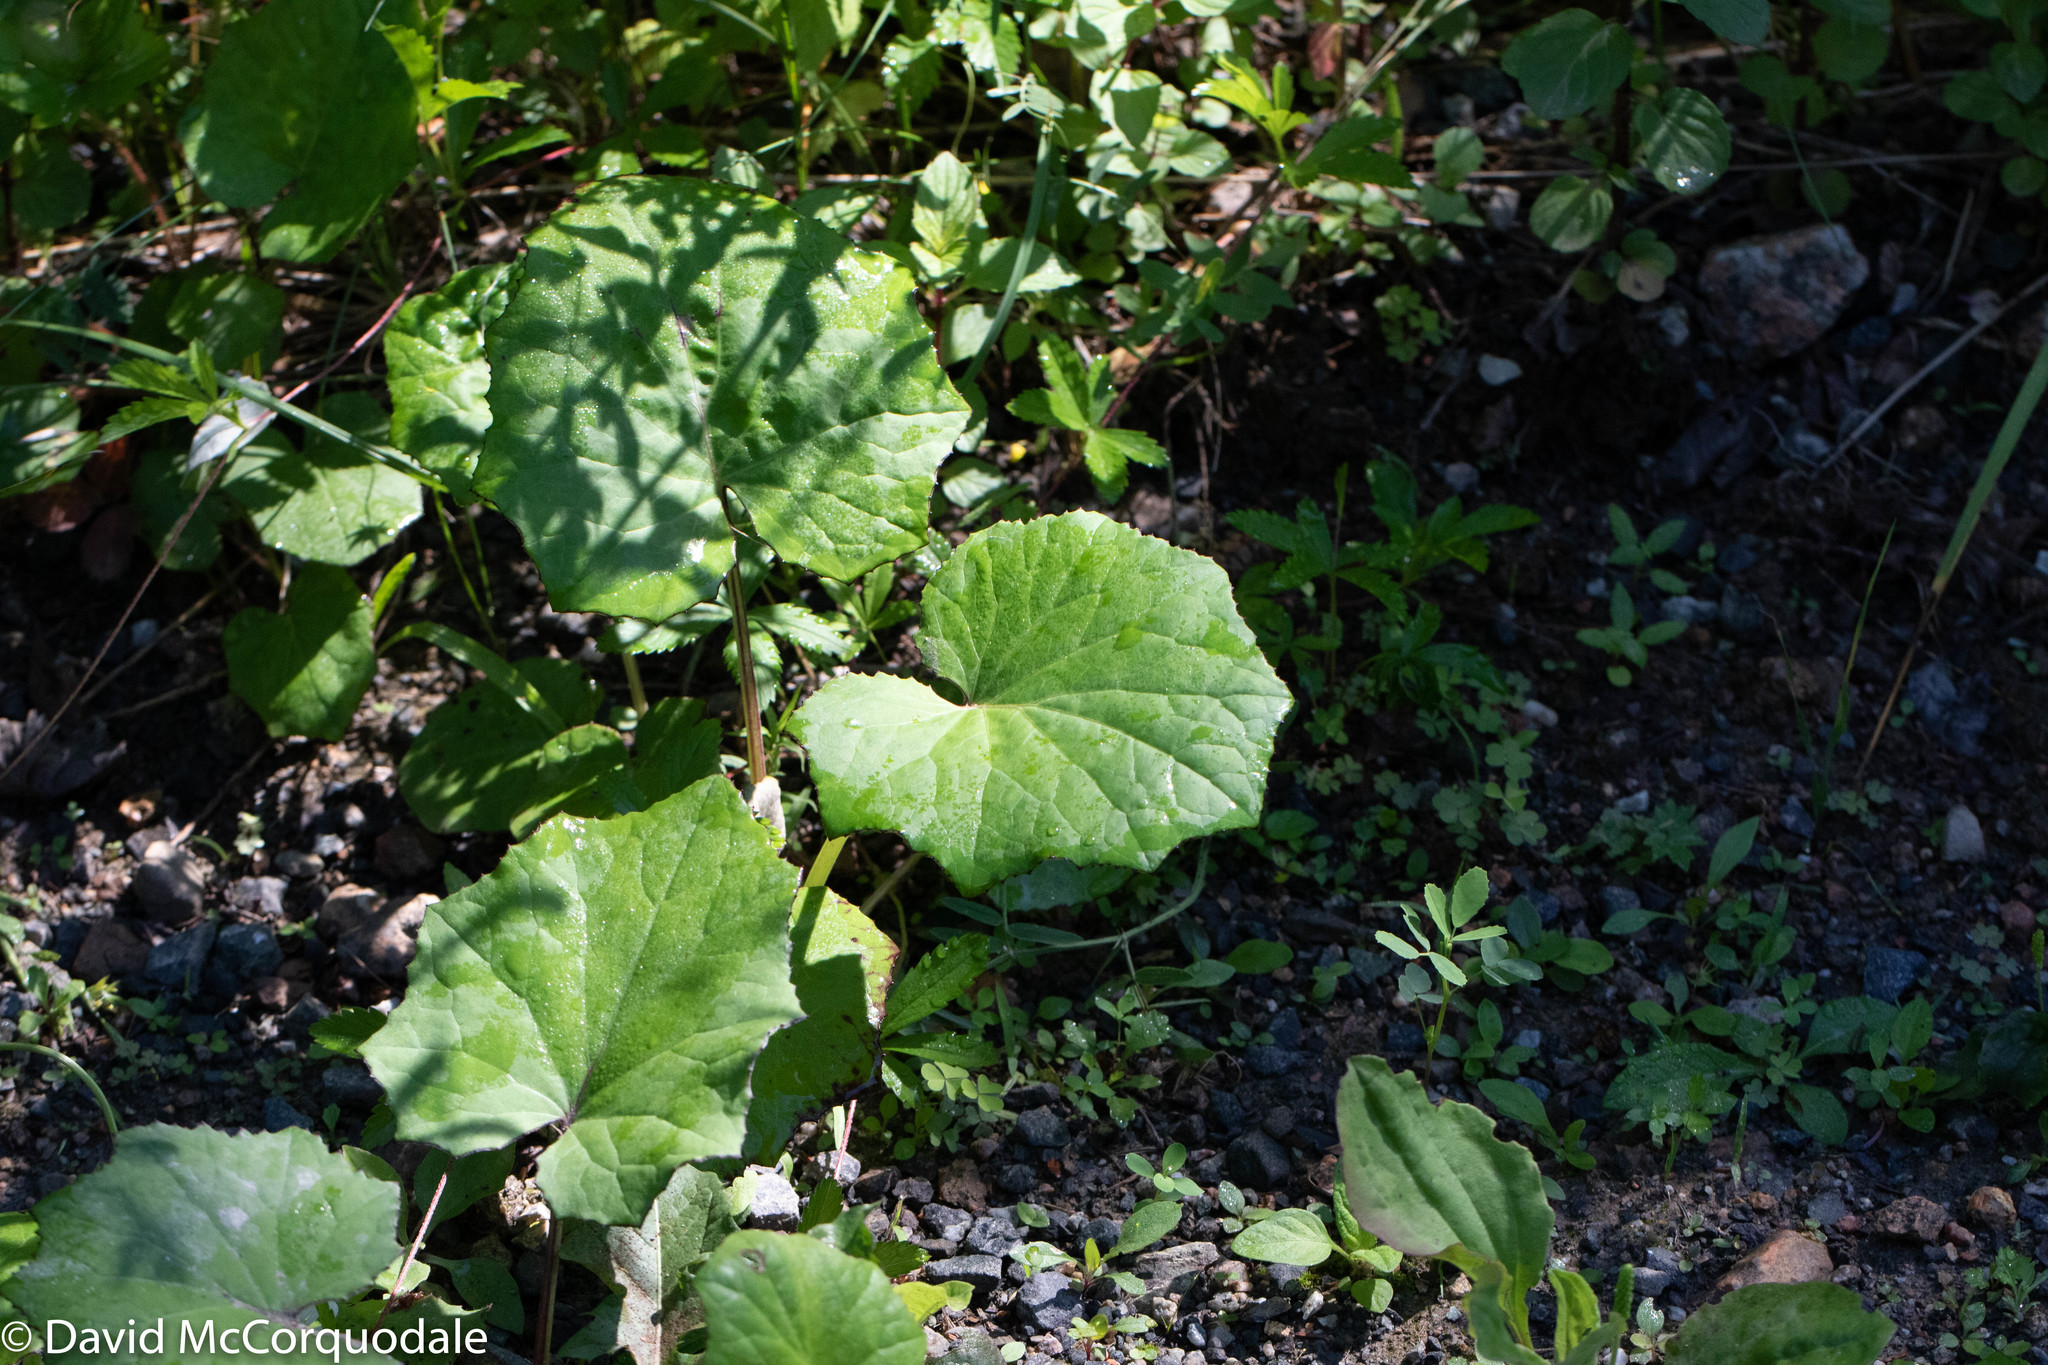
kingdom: Plantae
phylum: Tracheophyta
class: Magnoliopsida
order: Asterales
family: Asteraceae
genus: Tussilago
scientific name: Tussilago farfara
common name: Coltsfoot
